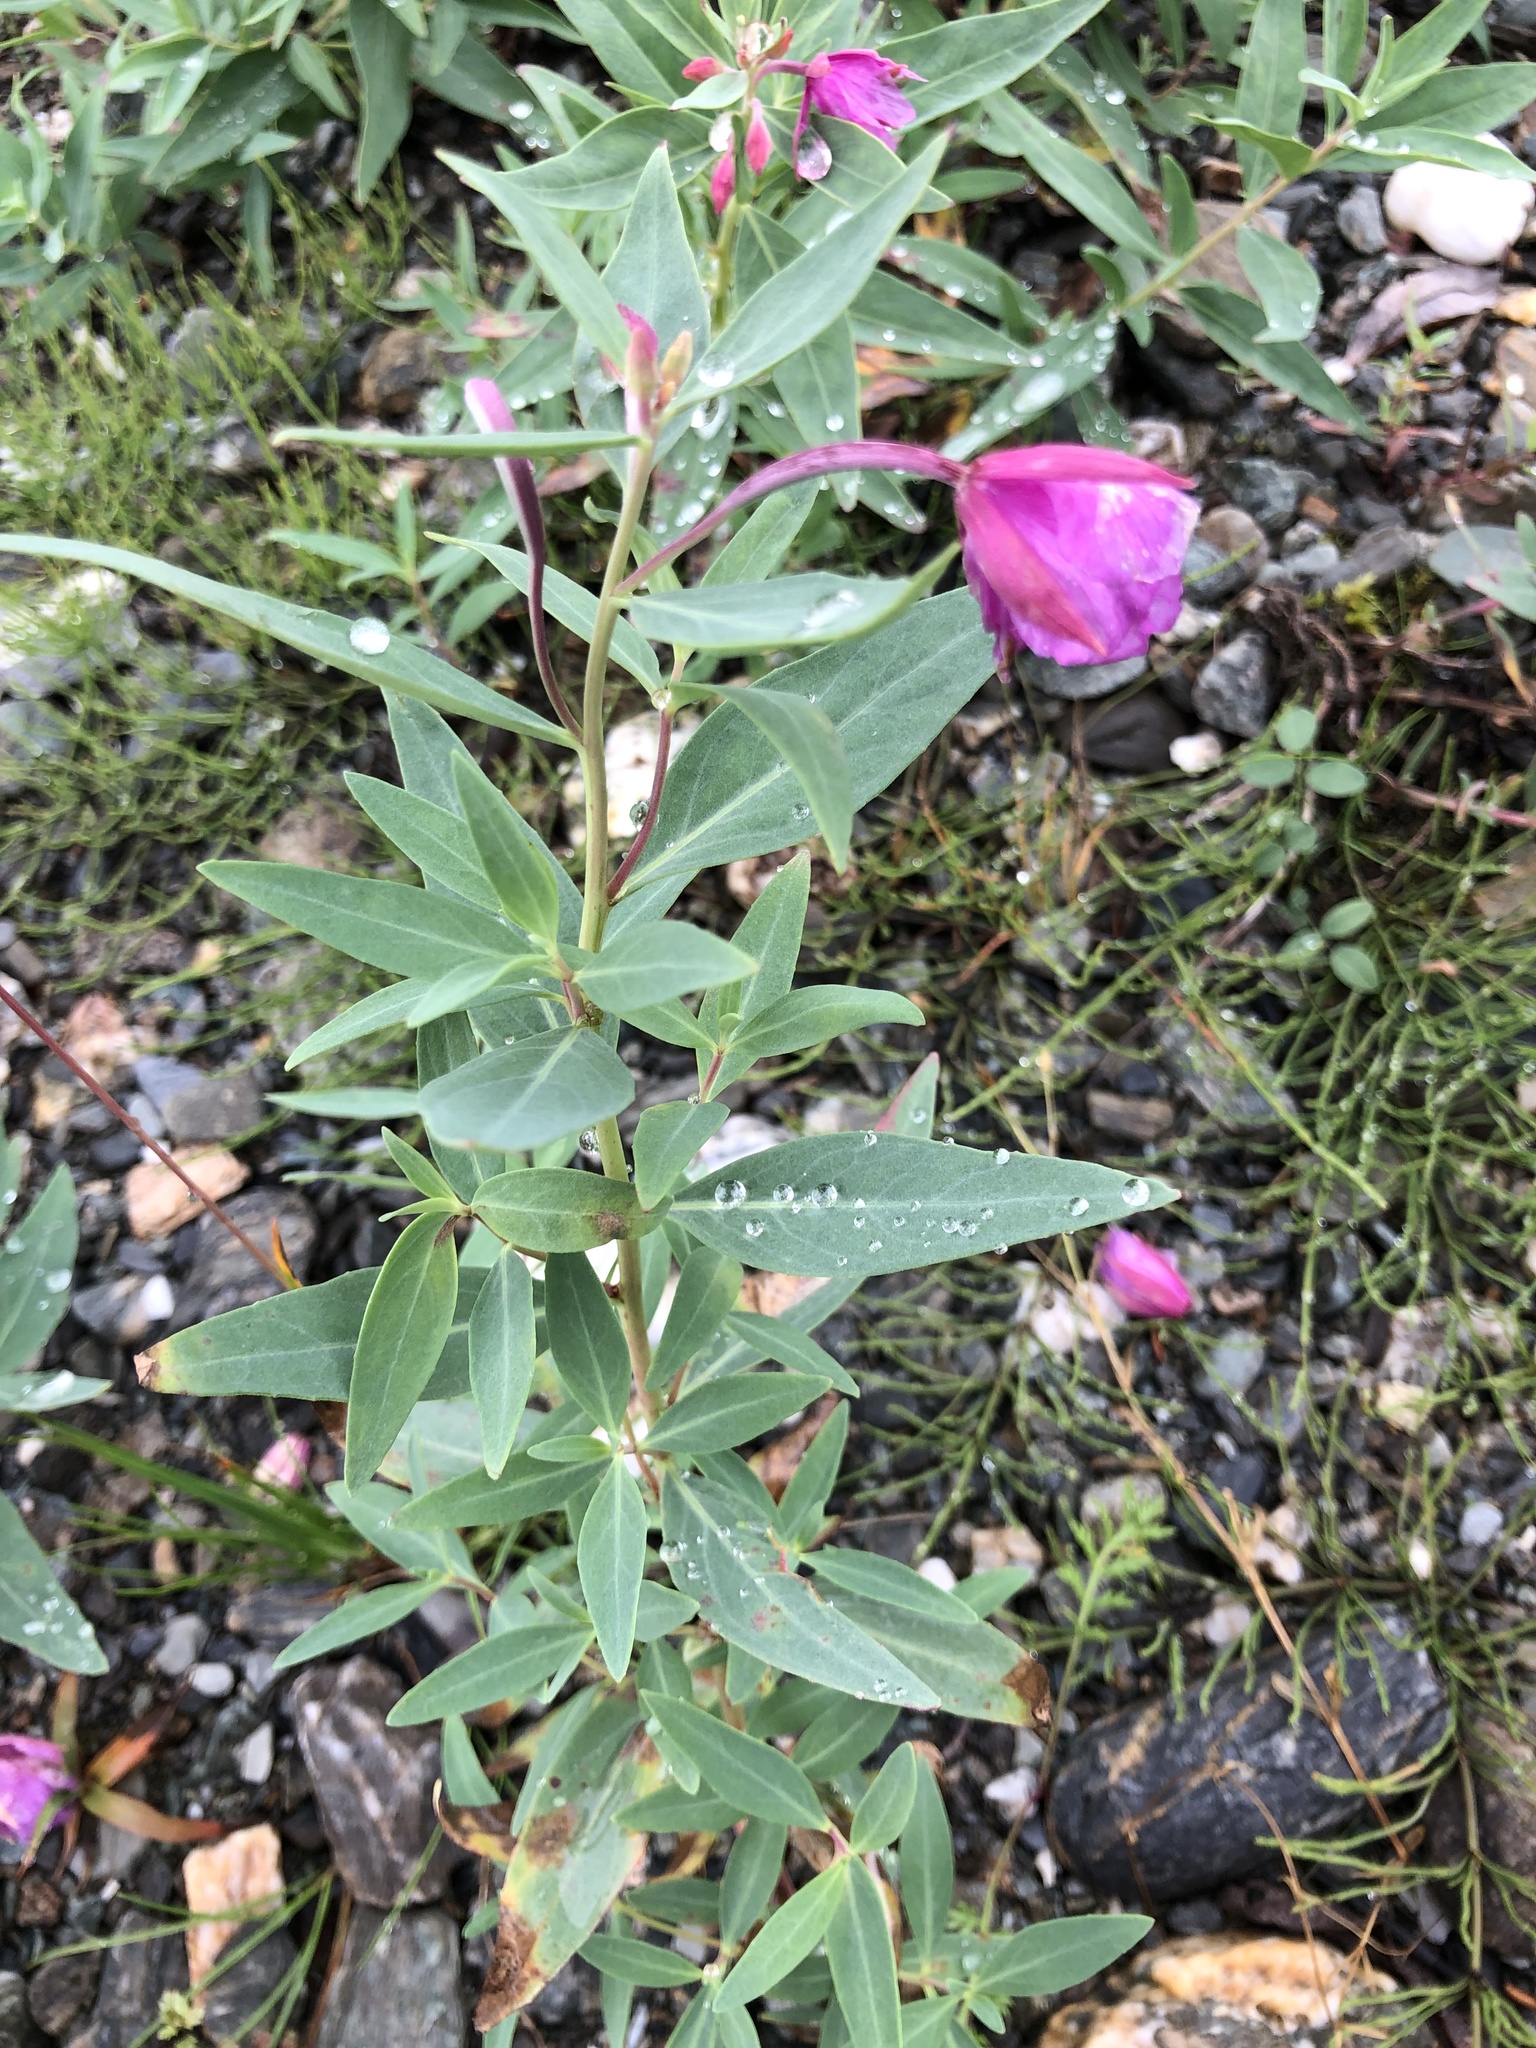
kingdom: Plantae
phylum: Tracheophyta
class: Magnoliopsida
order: Myrtales
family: Onagraceae
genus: Chamaenerion
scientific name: Chamaenerion latifolium
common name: Dwarf fireweed
